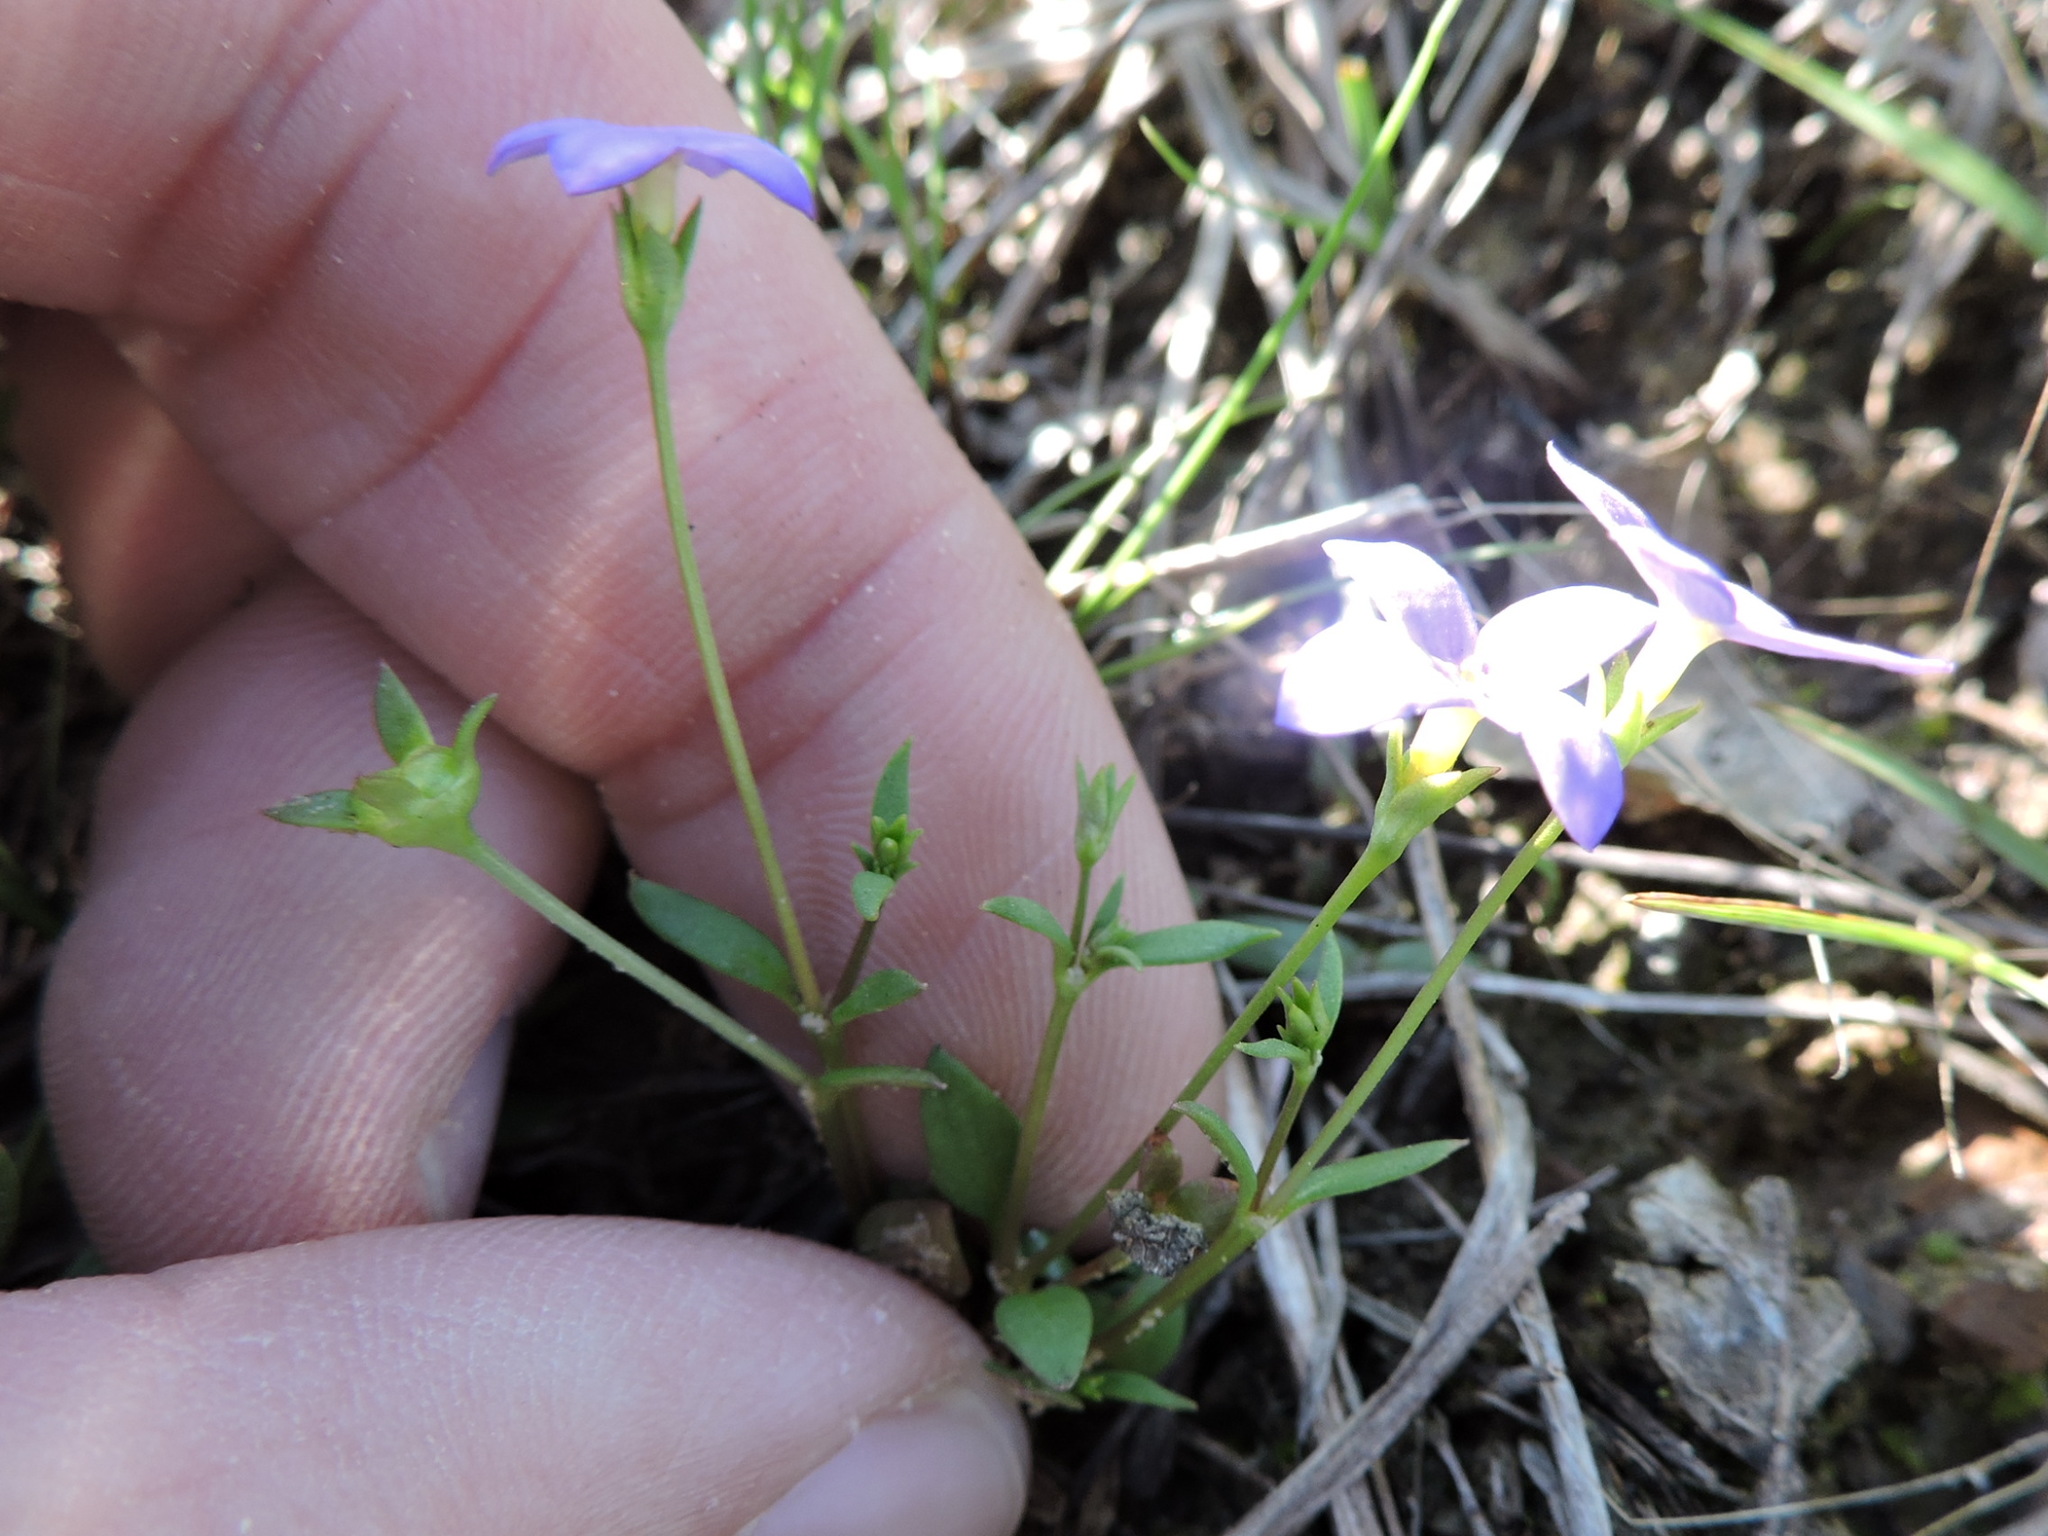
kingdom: Plantae
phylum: Tracheophyta
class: Magnoliopsida
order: Gentianales
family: Rubiaceae
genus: Houstonia
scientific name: Houstonia pusilla
